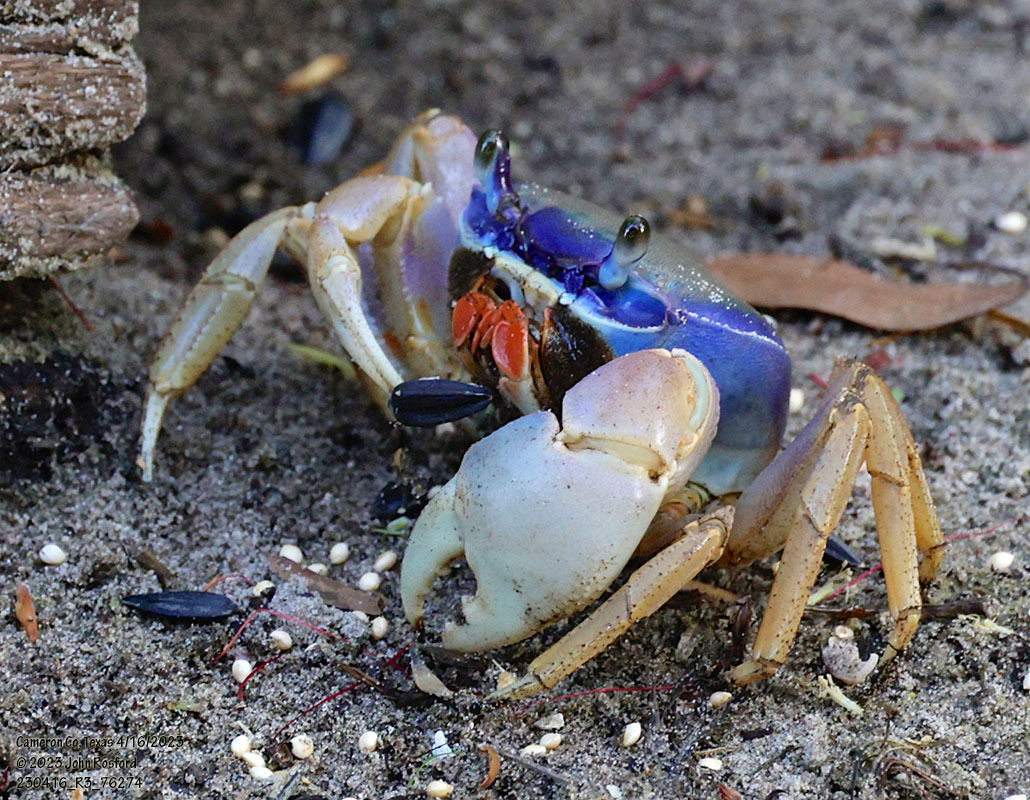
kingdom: Animalia
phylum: Arthropoda
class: Malacostraca
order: Decapoda
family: Gecarcinidae
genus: Cardisoma
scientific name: Cardisoma guanhumi
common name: Great land crab
